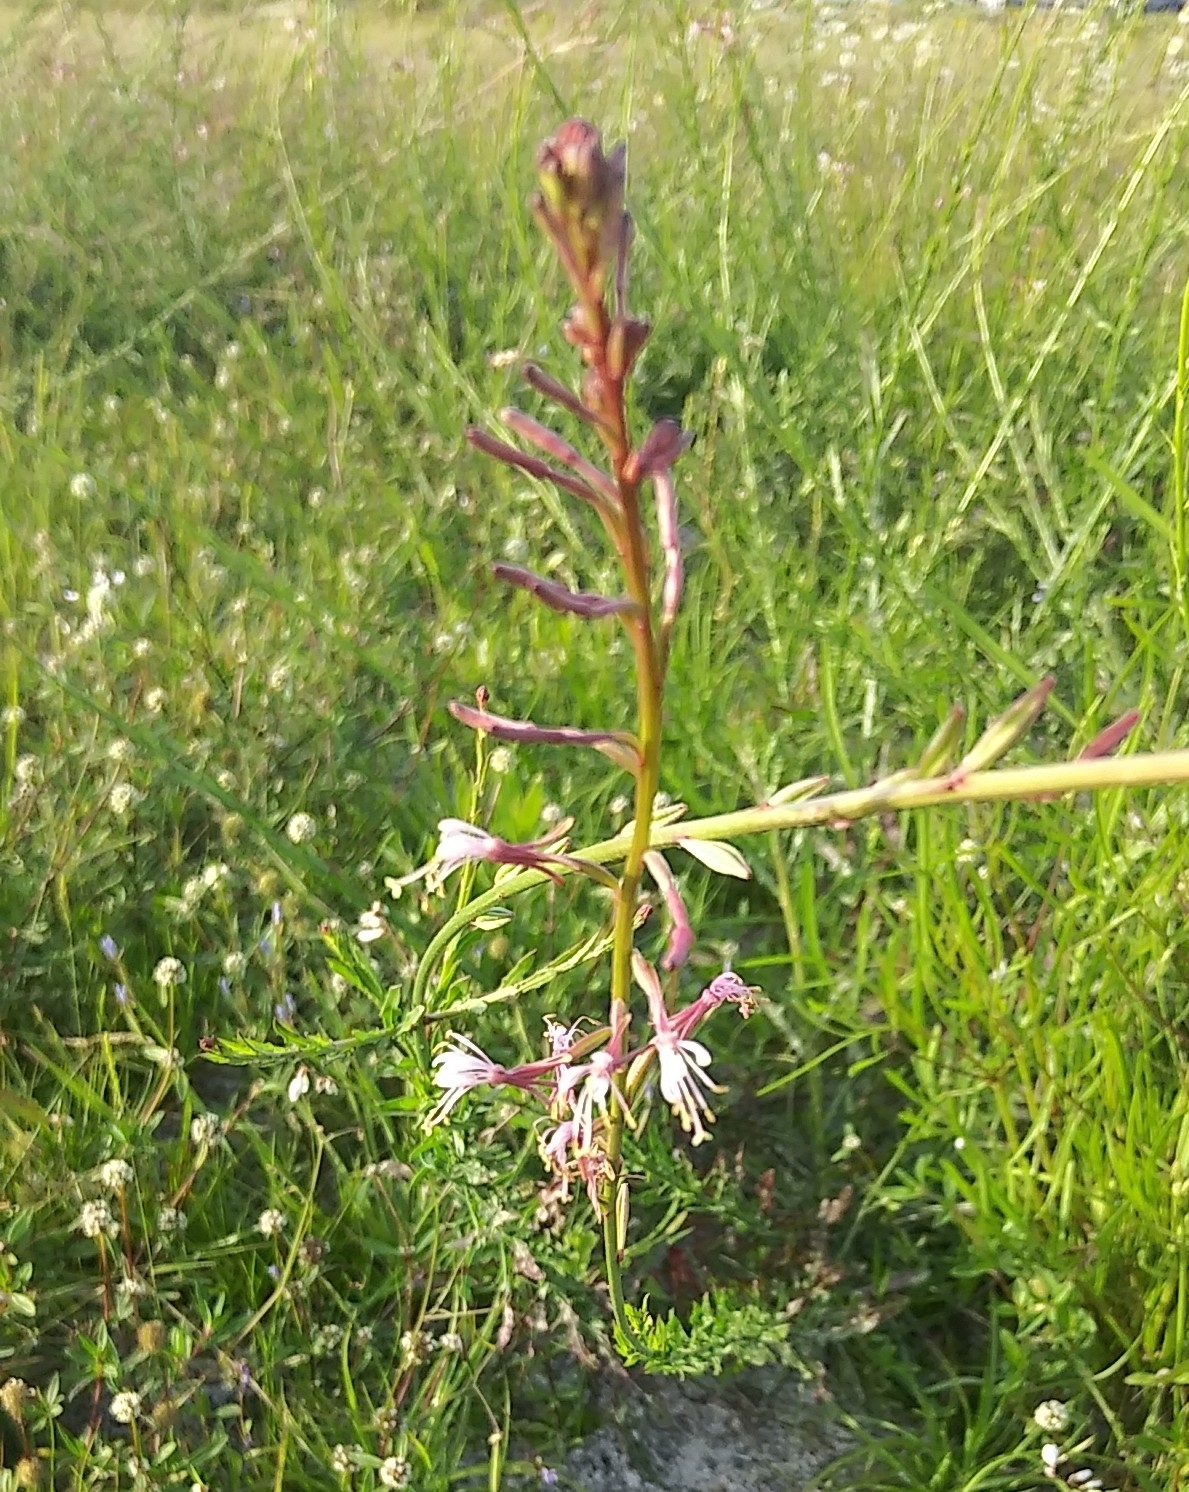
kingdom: Plantae
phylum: Tracheophyta
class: Magnoliopsida
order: Myrtales
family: Onagraceae
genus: Oenothera
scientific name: Oenothera simulans
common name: Southern beeblossom
